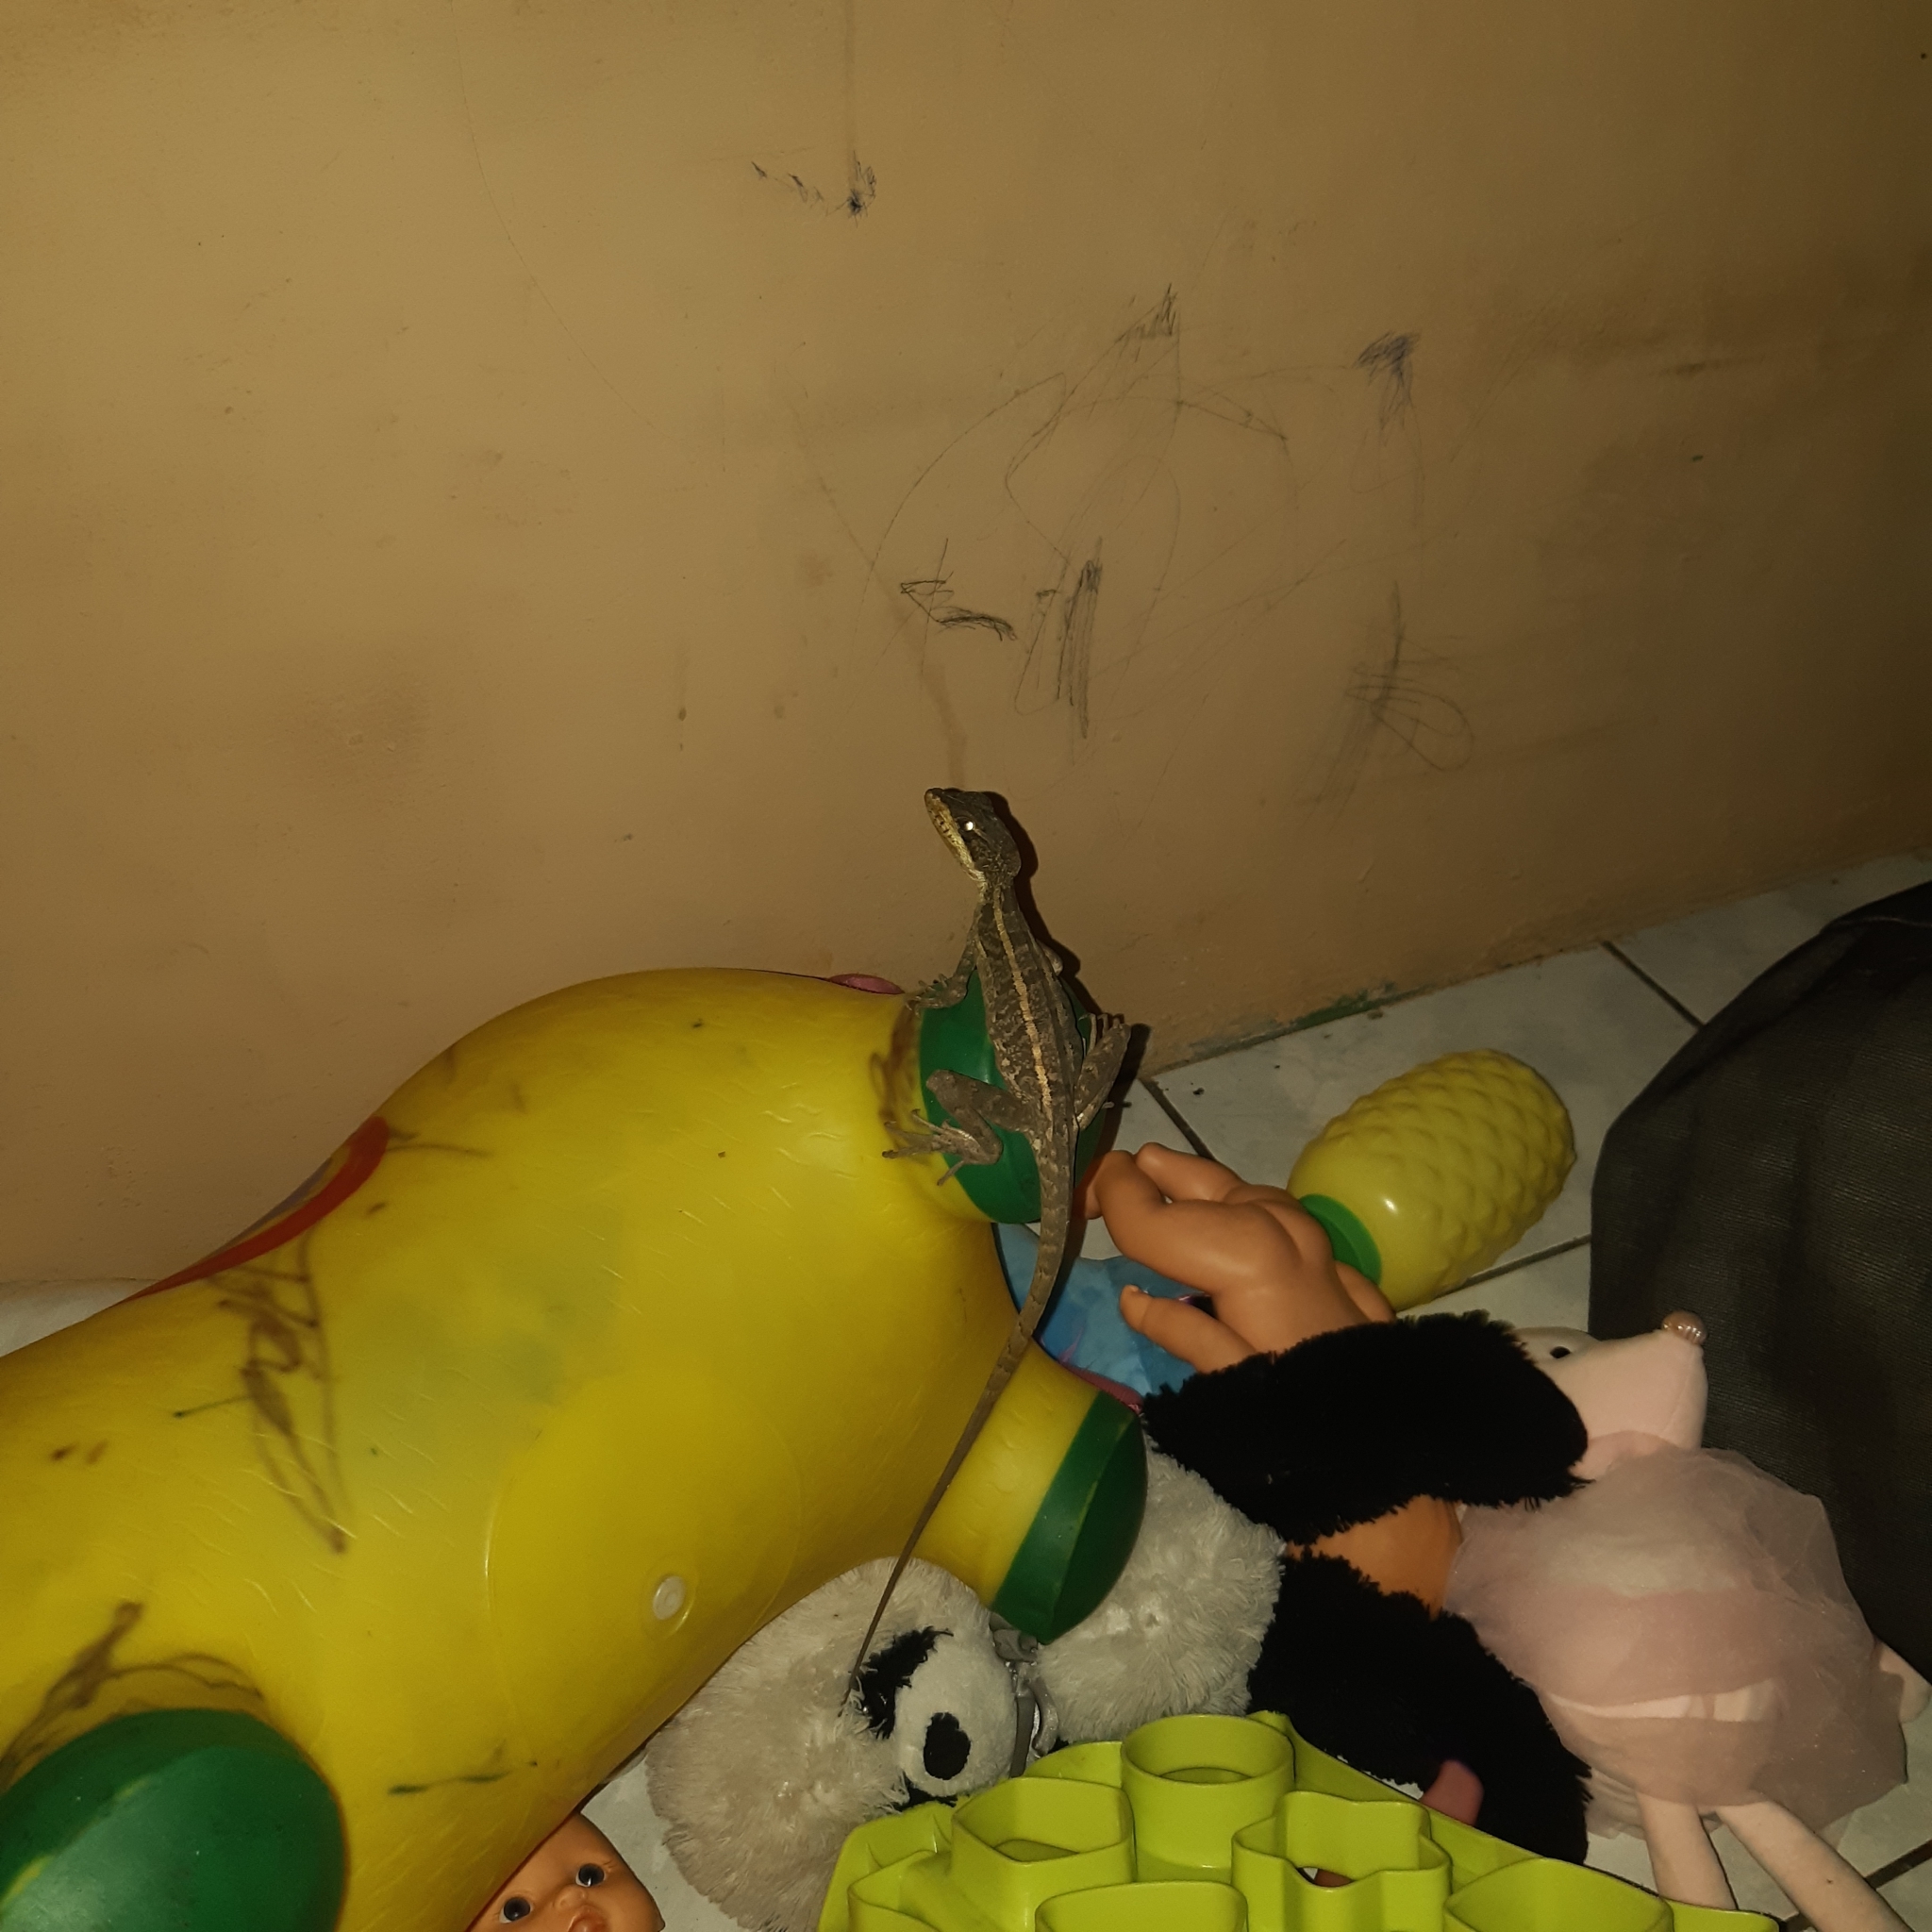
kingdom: Animalia
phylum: Chordata
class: Squamata
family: Corytophanidae
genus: Basiliscus
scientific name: Basiliscus vittatus
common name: Brown basilisk
